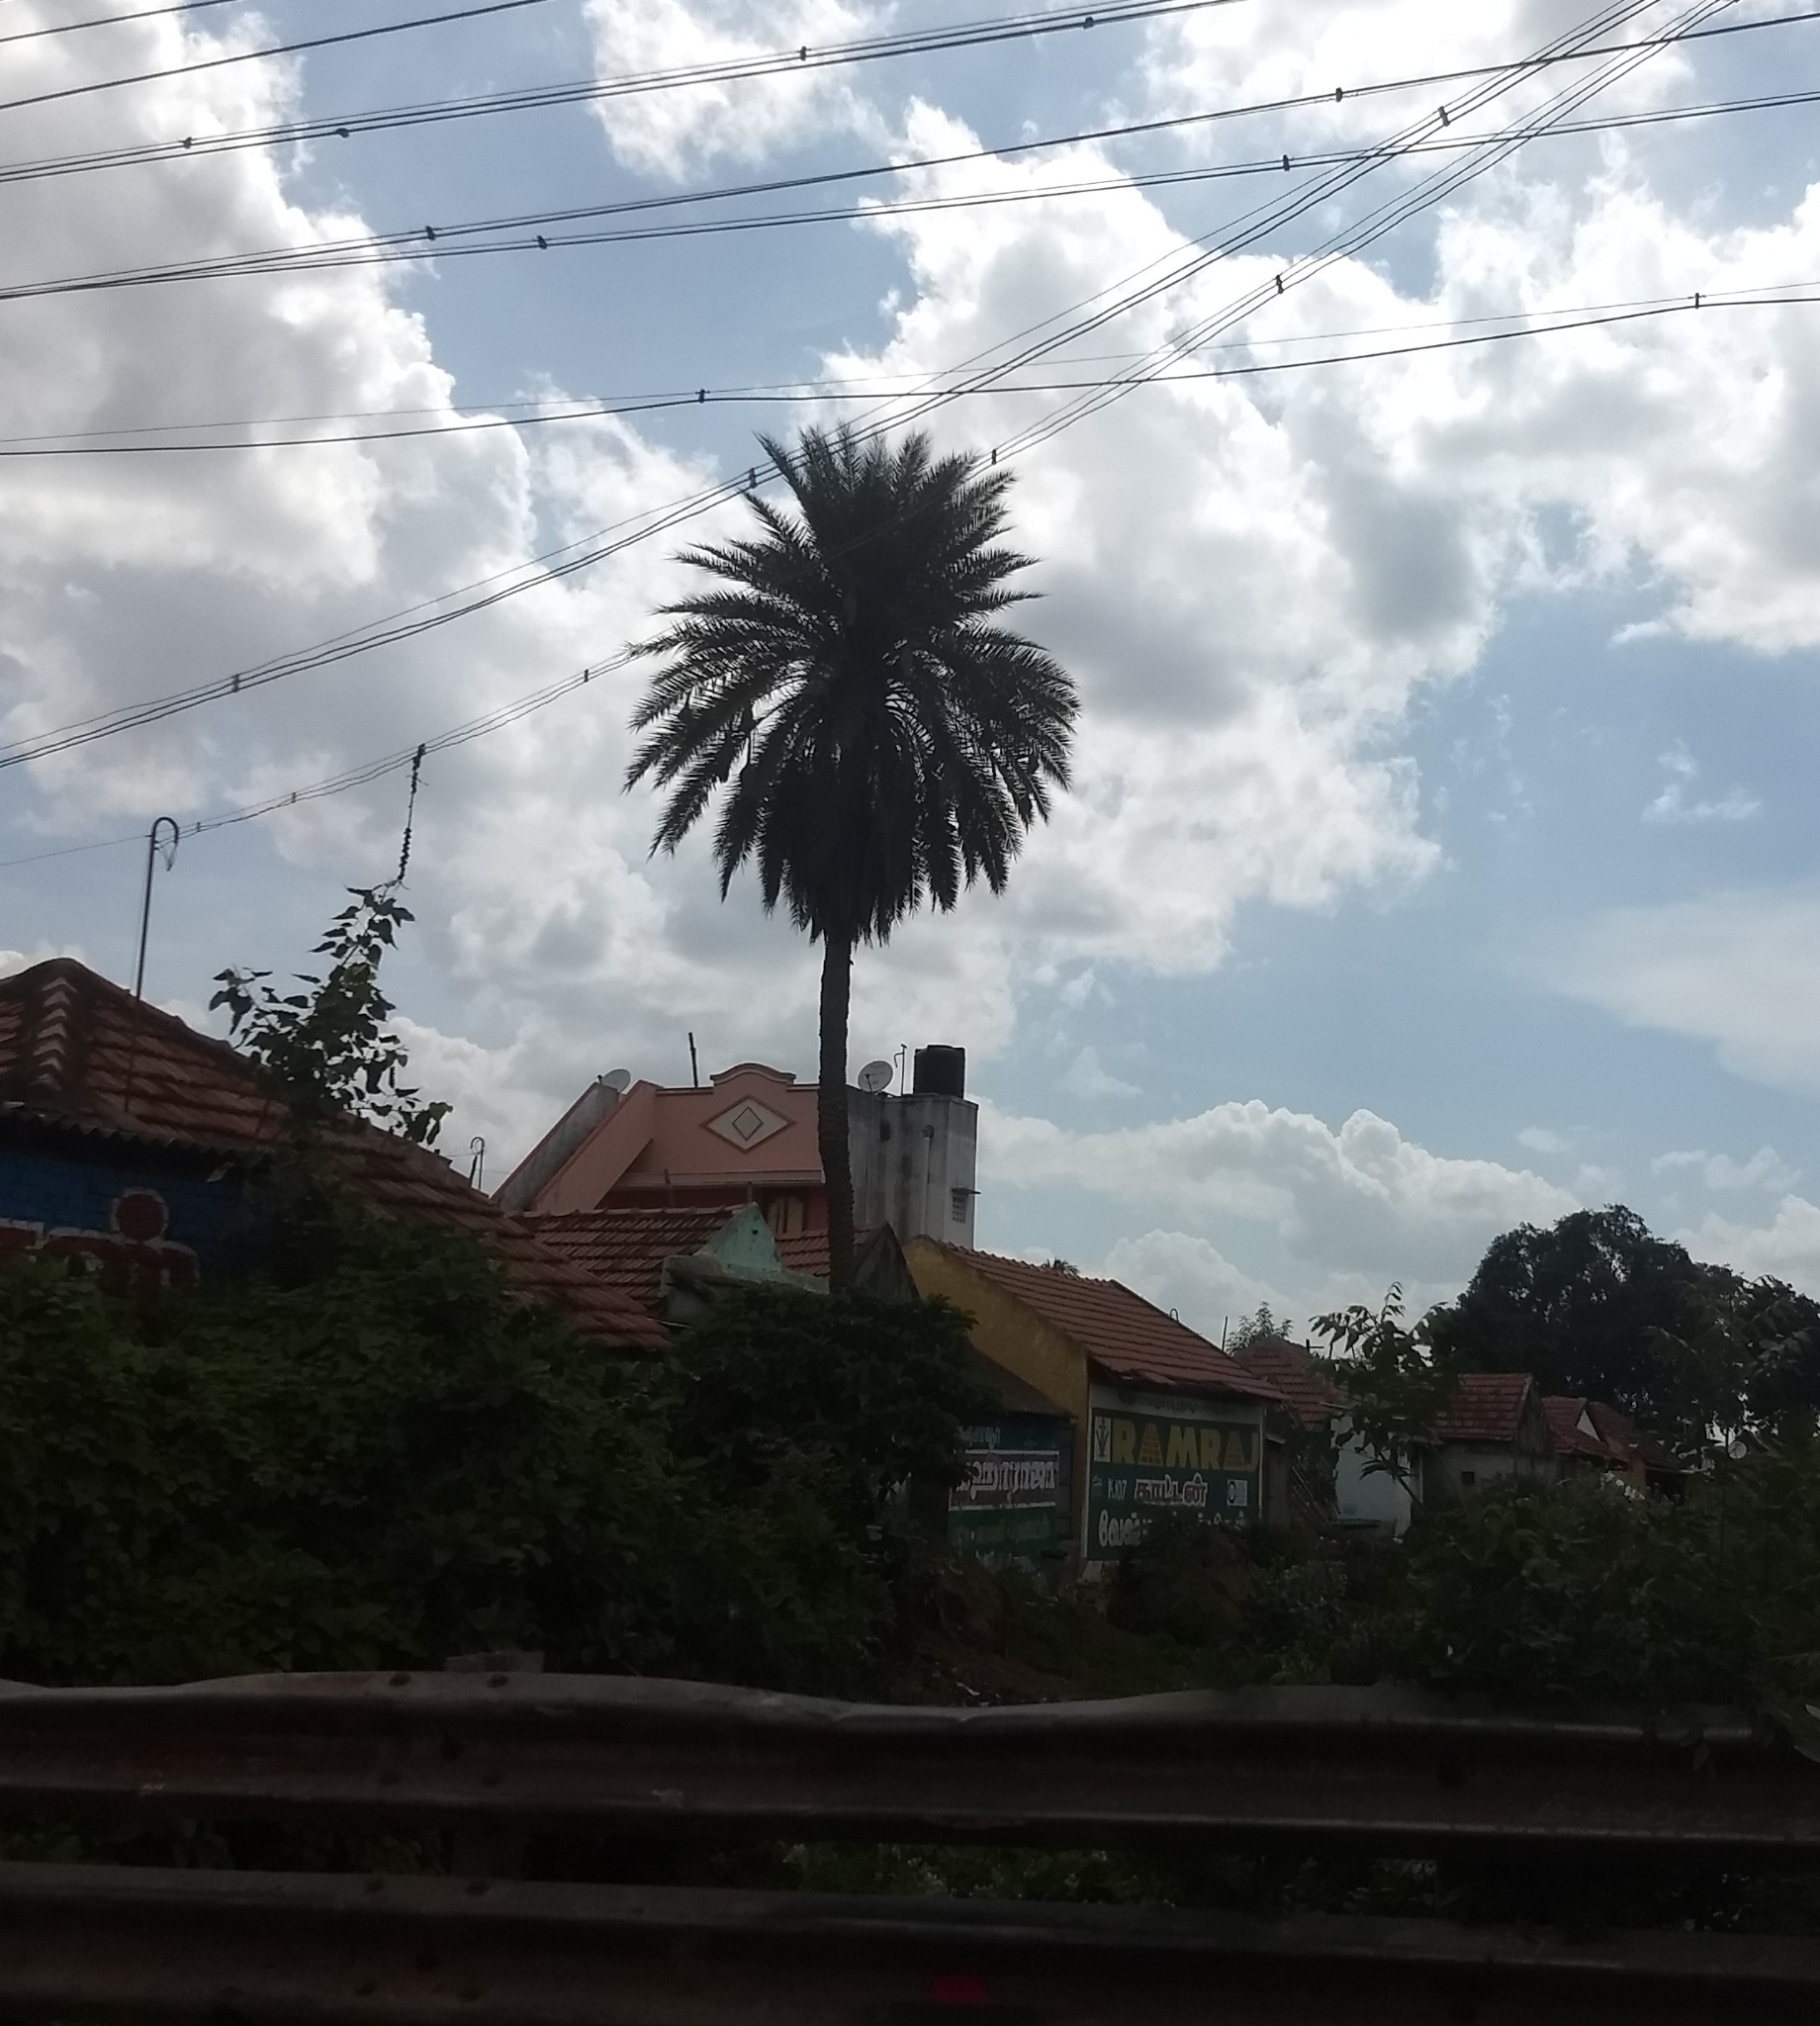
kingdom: Plantae
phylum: Tracheophyta
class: Liliopsida
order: Arecales
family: Arecaceae
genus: Phoenix
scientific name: Phoenix sylvestris
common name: Wild date palm
